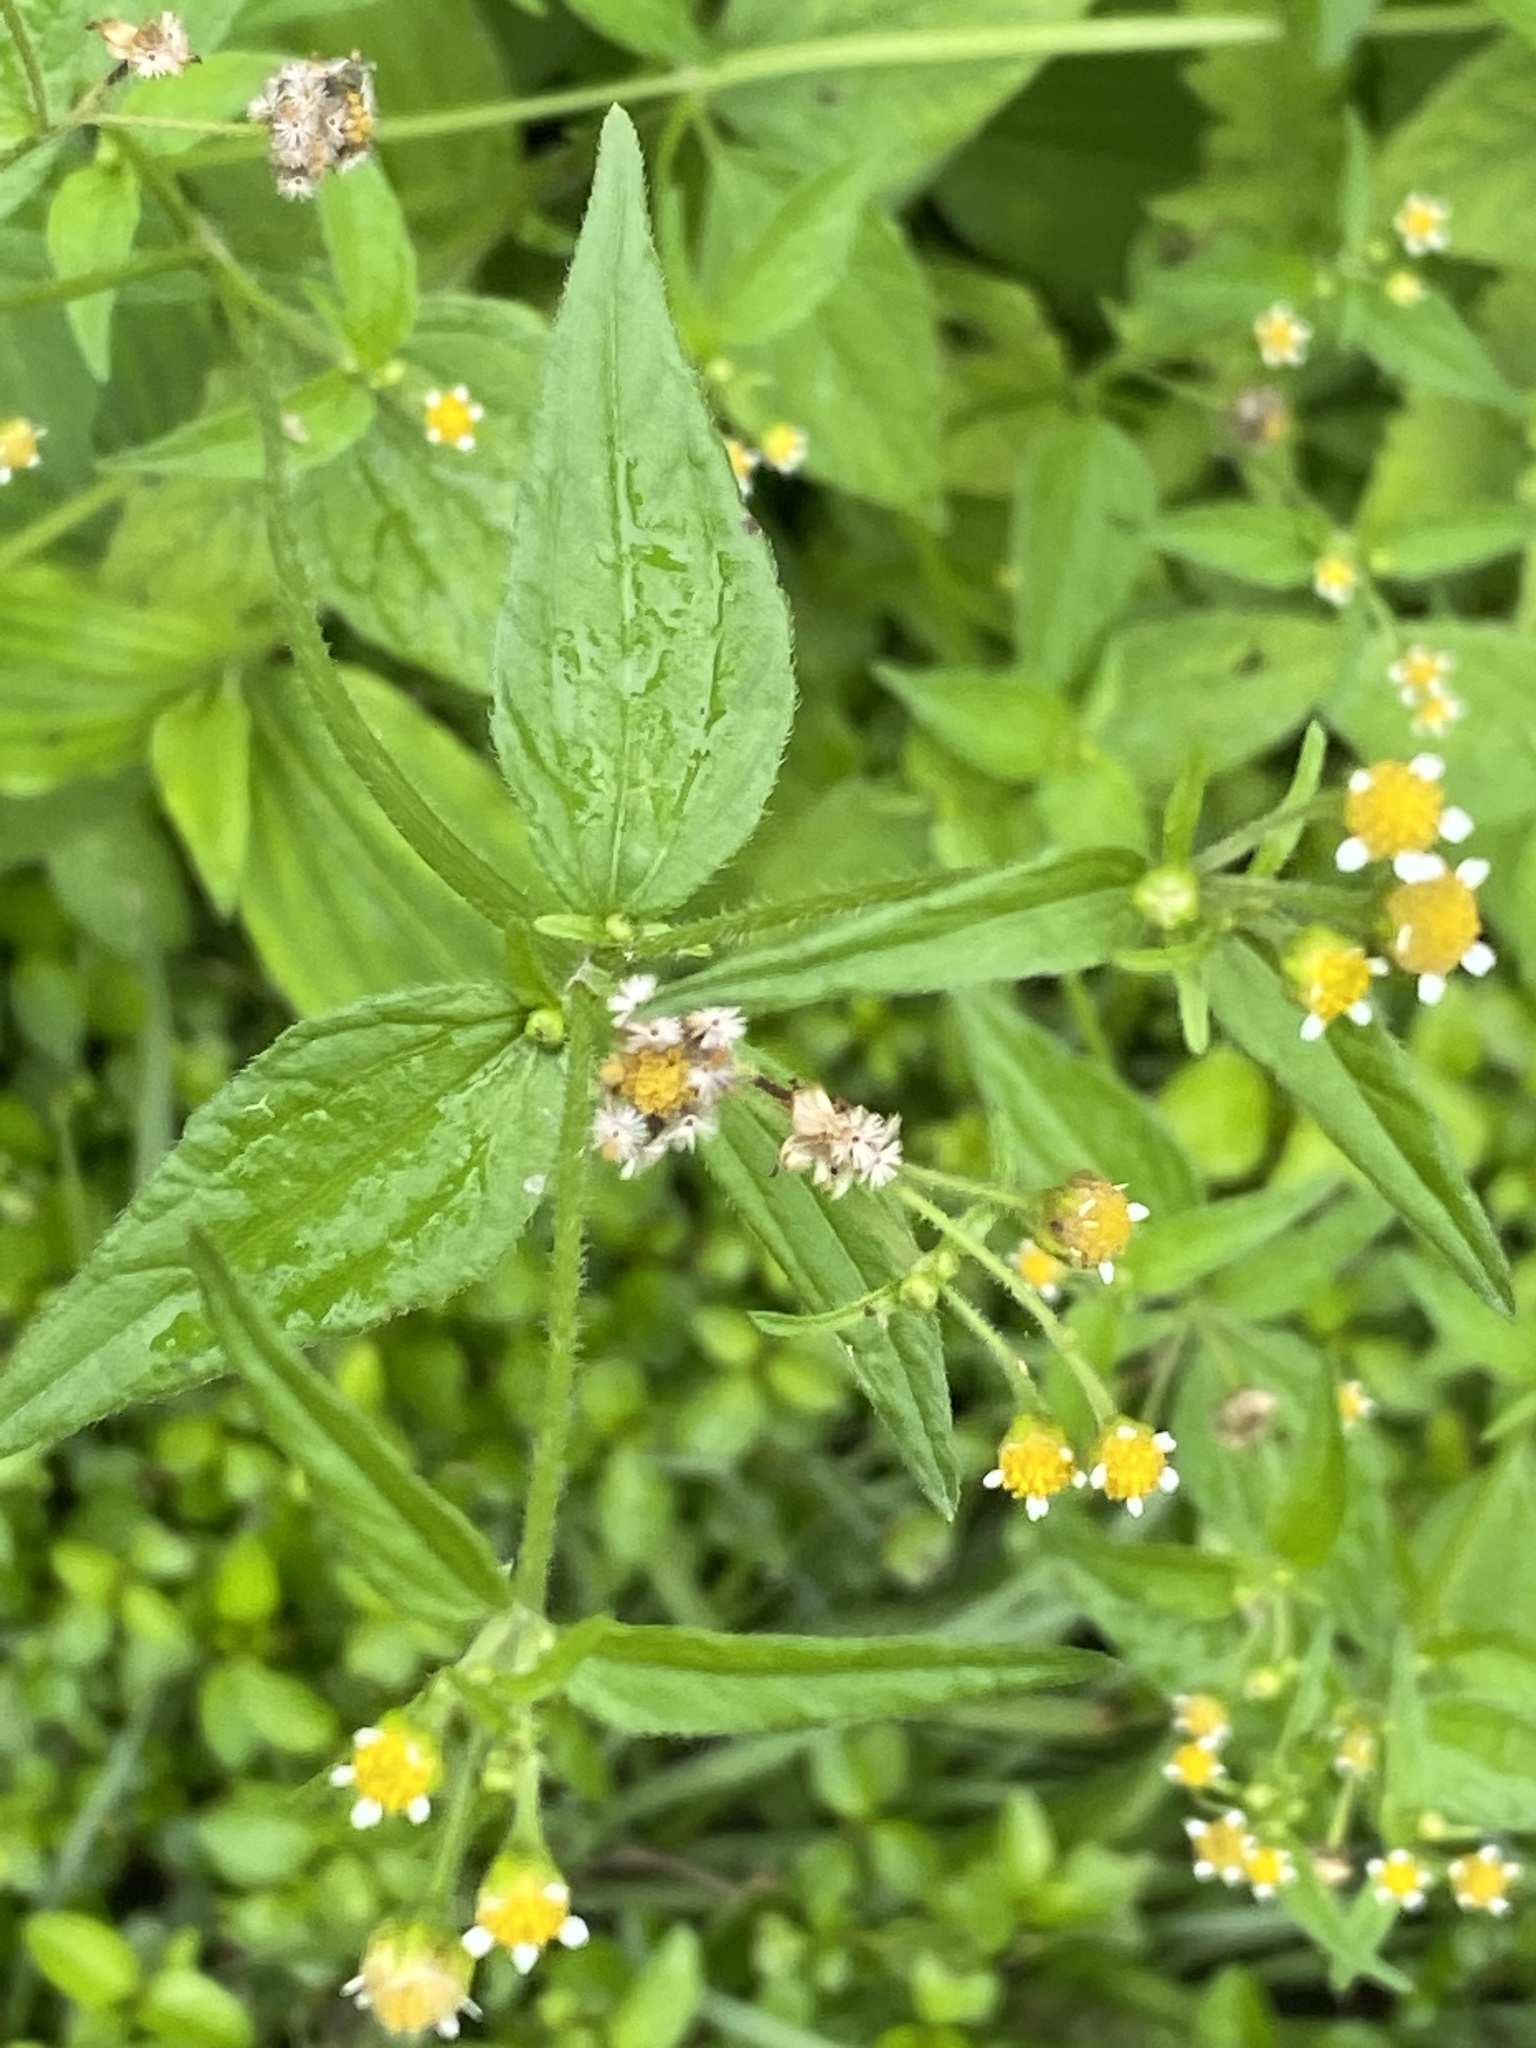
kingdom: Plantae
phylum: Tracheophyta
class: Magnoliopsida
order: Asterales
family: Asteraceae
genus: Galinsoga
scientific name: Galinsoga parviflora
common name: Gallant soldier
